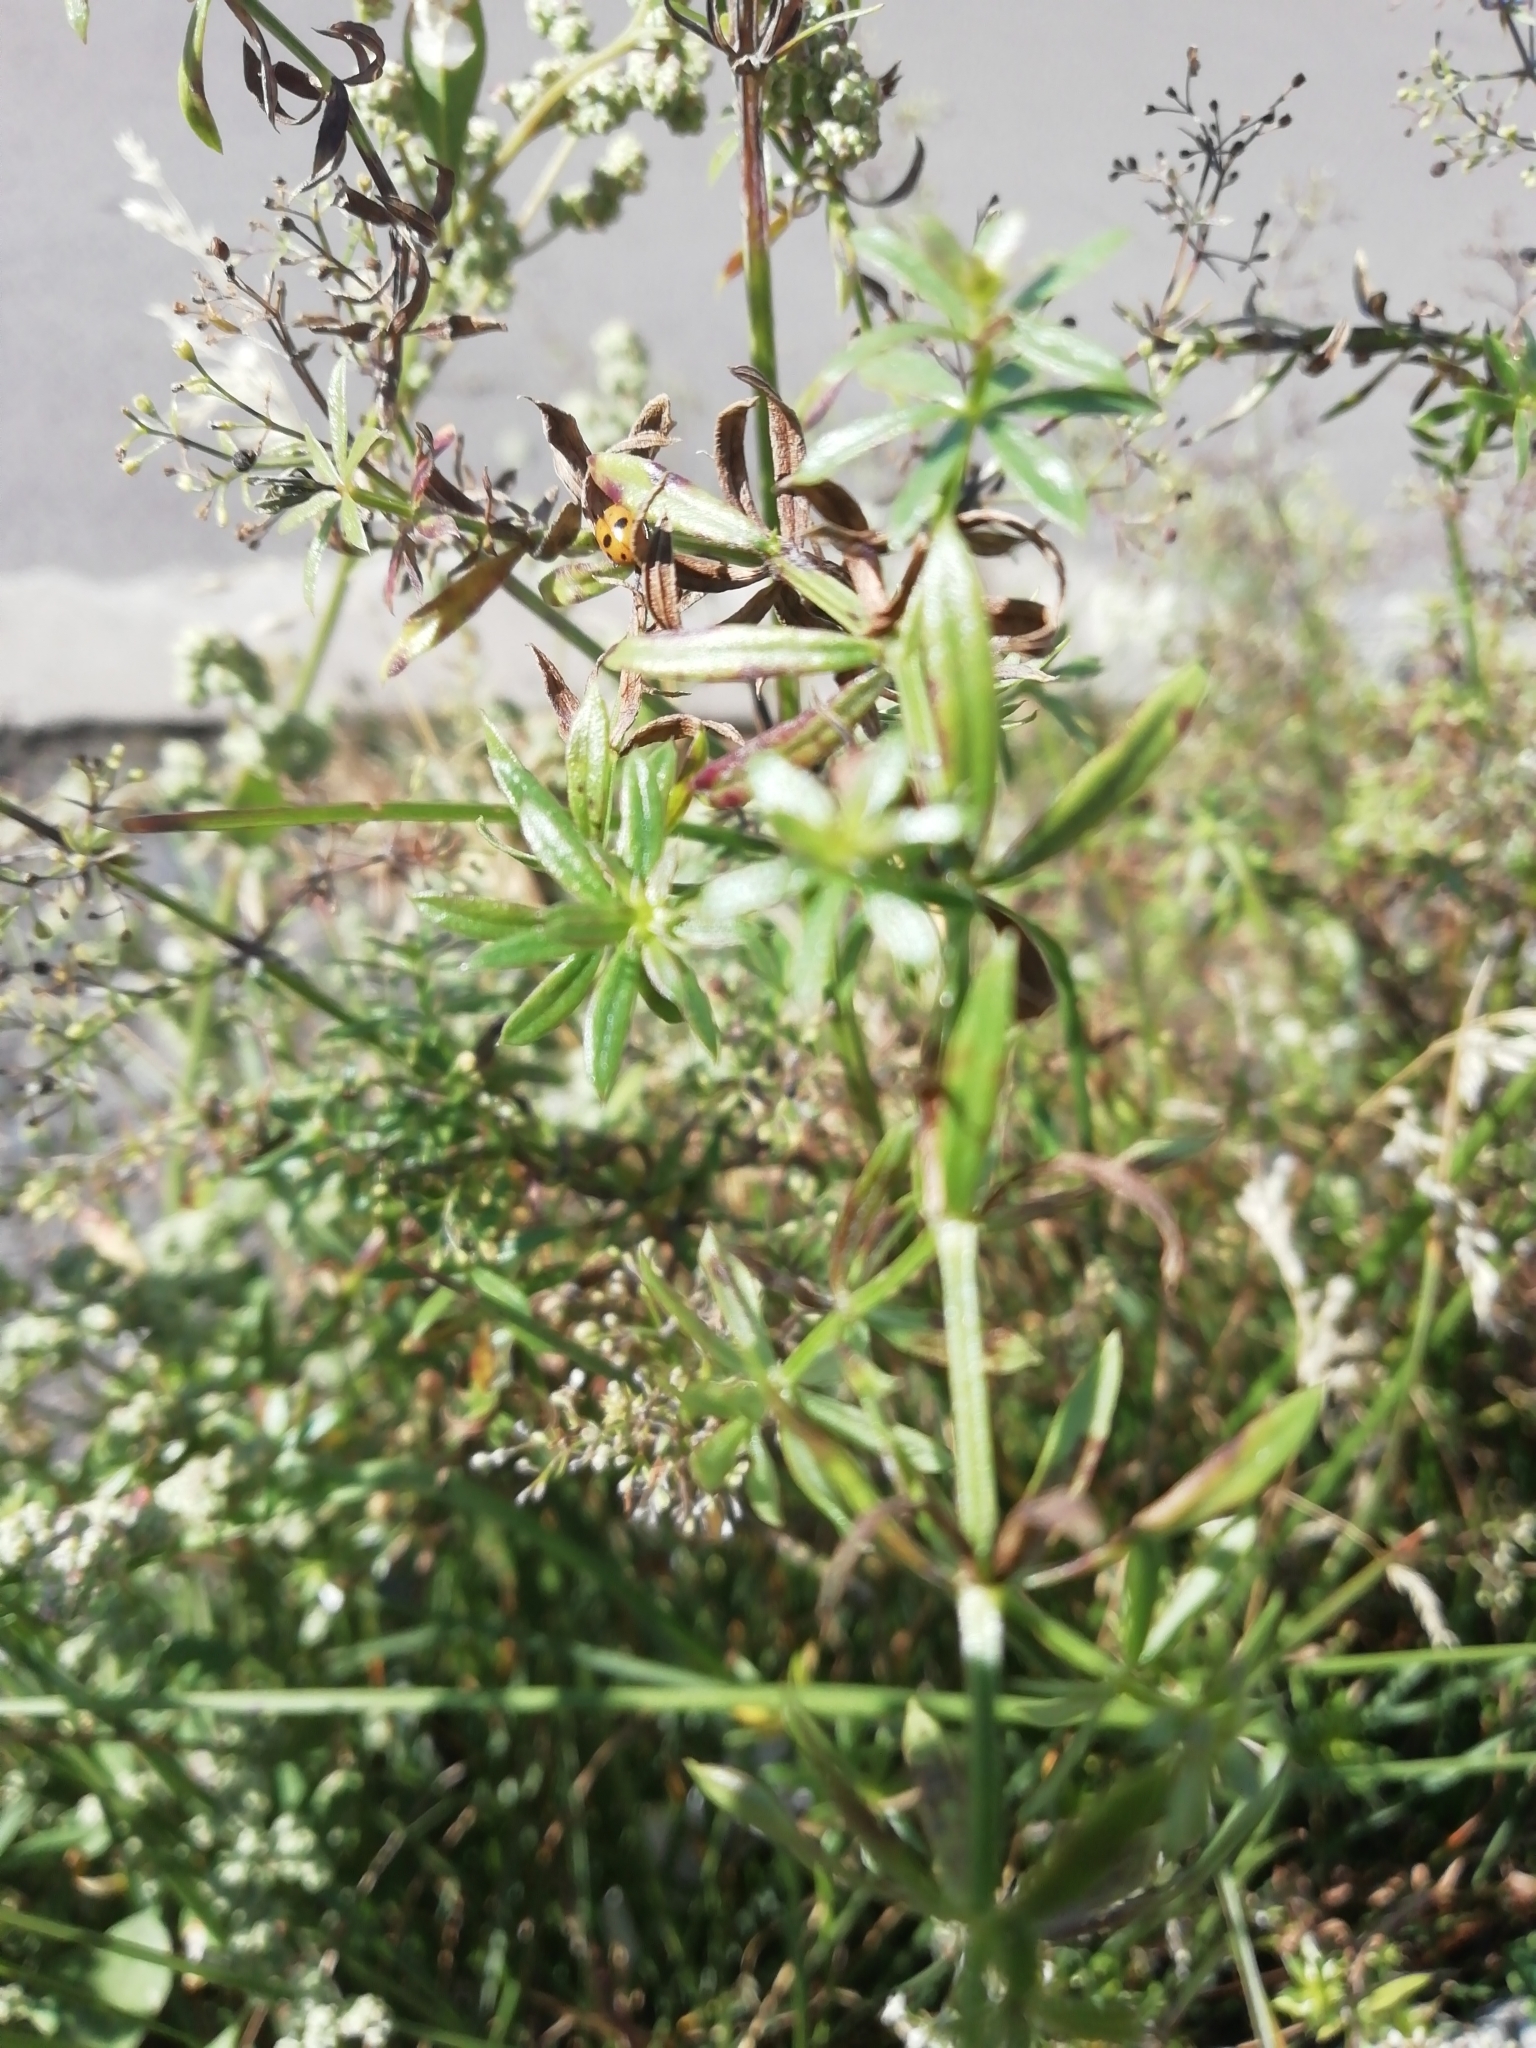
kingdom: Plantae
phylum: Tracheophyta
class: Magnoliopsida
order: Gentianales
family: Rubiaceae
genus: Galium
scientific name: Galium mollugo
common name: Hedge bedstraw
